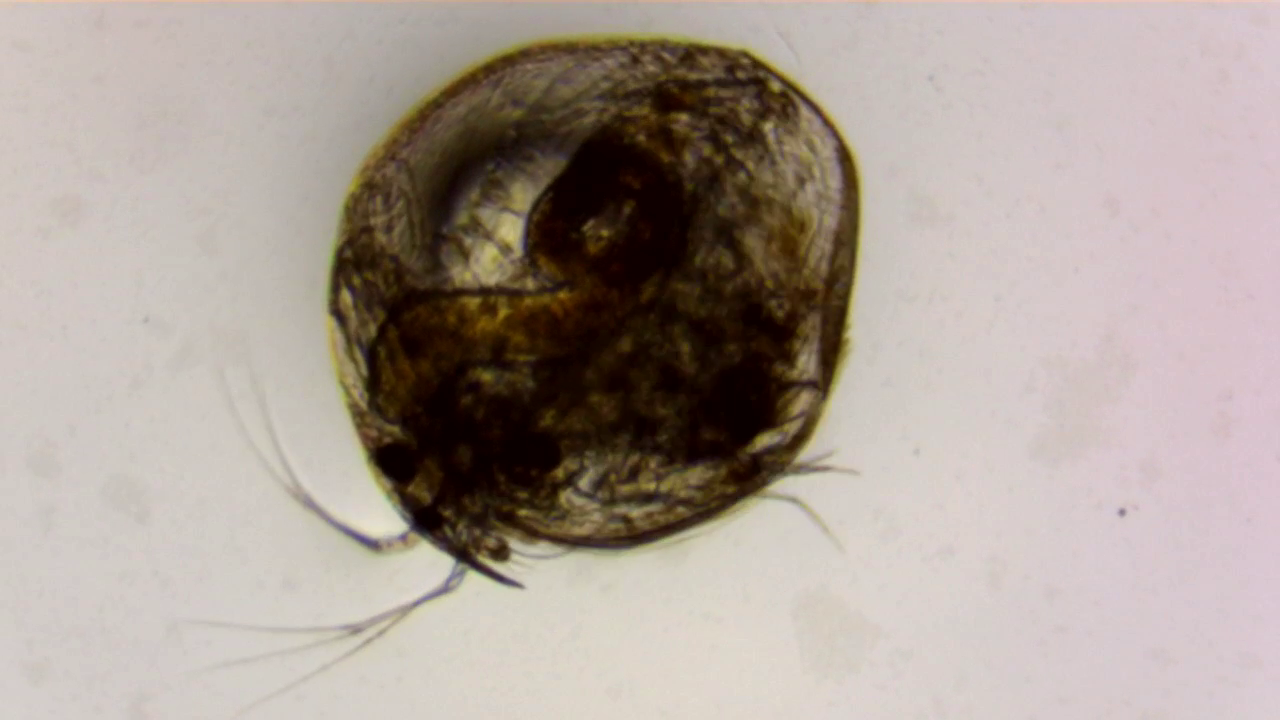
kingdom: Animalia
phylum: Arthropoda
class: Branchiopoda
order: Diplostraca
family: Chydoridae
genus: Chydorus
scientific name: Chydorus sphaericus
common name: Water flea
